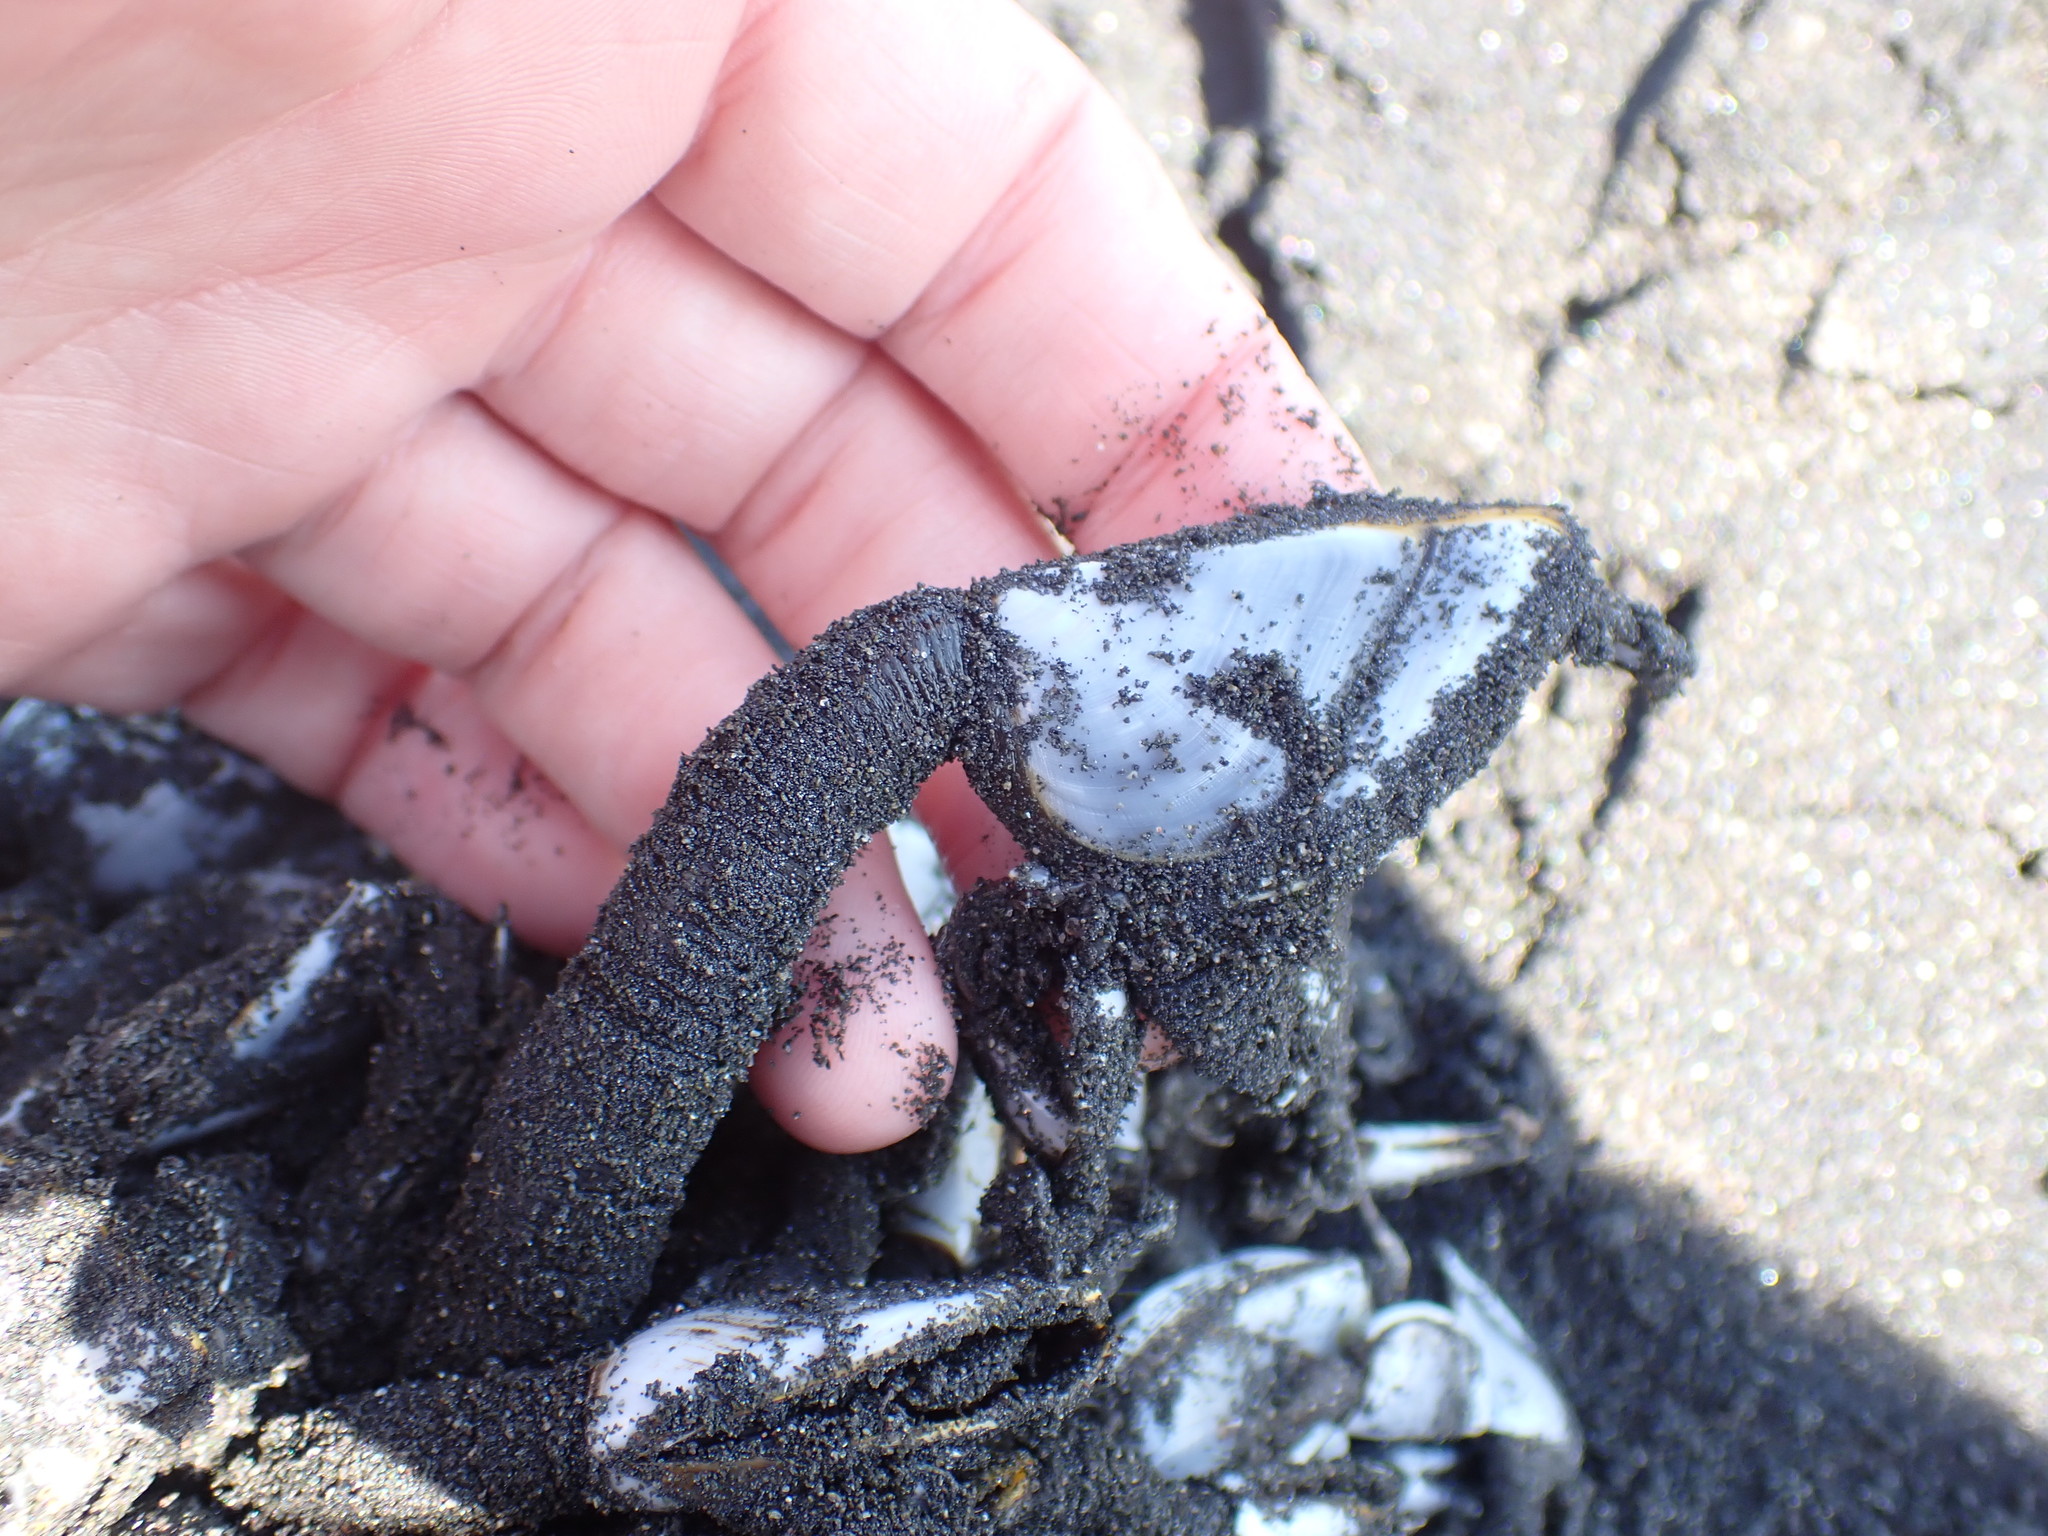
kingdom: Animalia
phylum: Arthropoda
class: Maxillopoda
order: Pedunculata
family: Lepadidae
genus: Lepas
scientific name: Lepas anatifera
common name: Common goose barnacle
